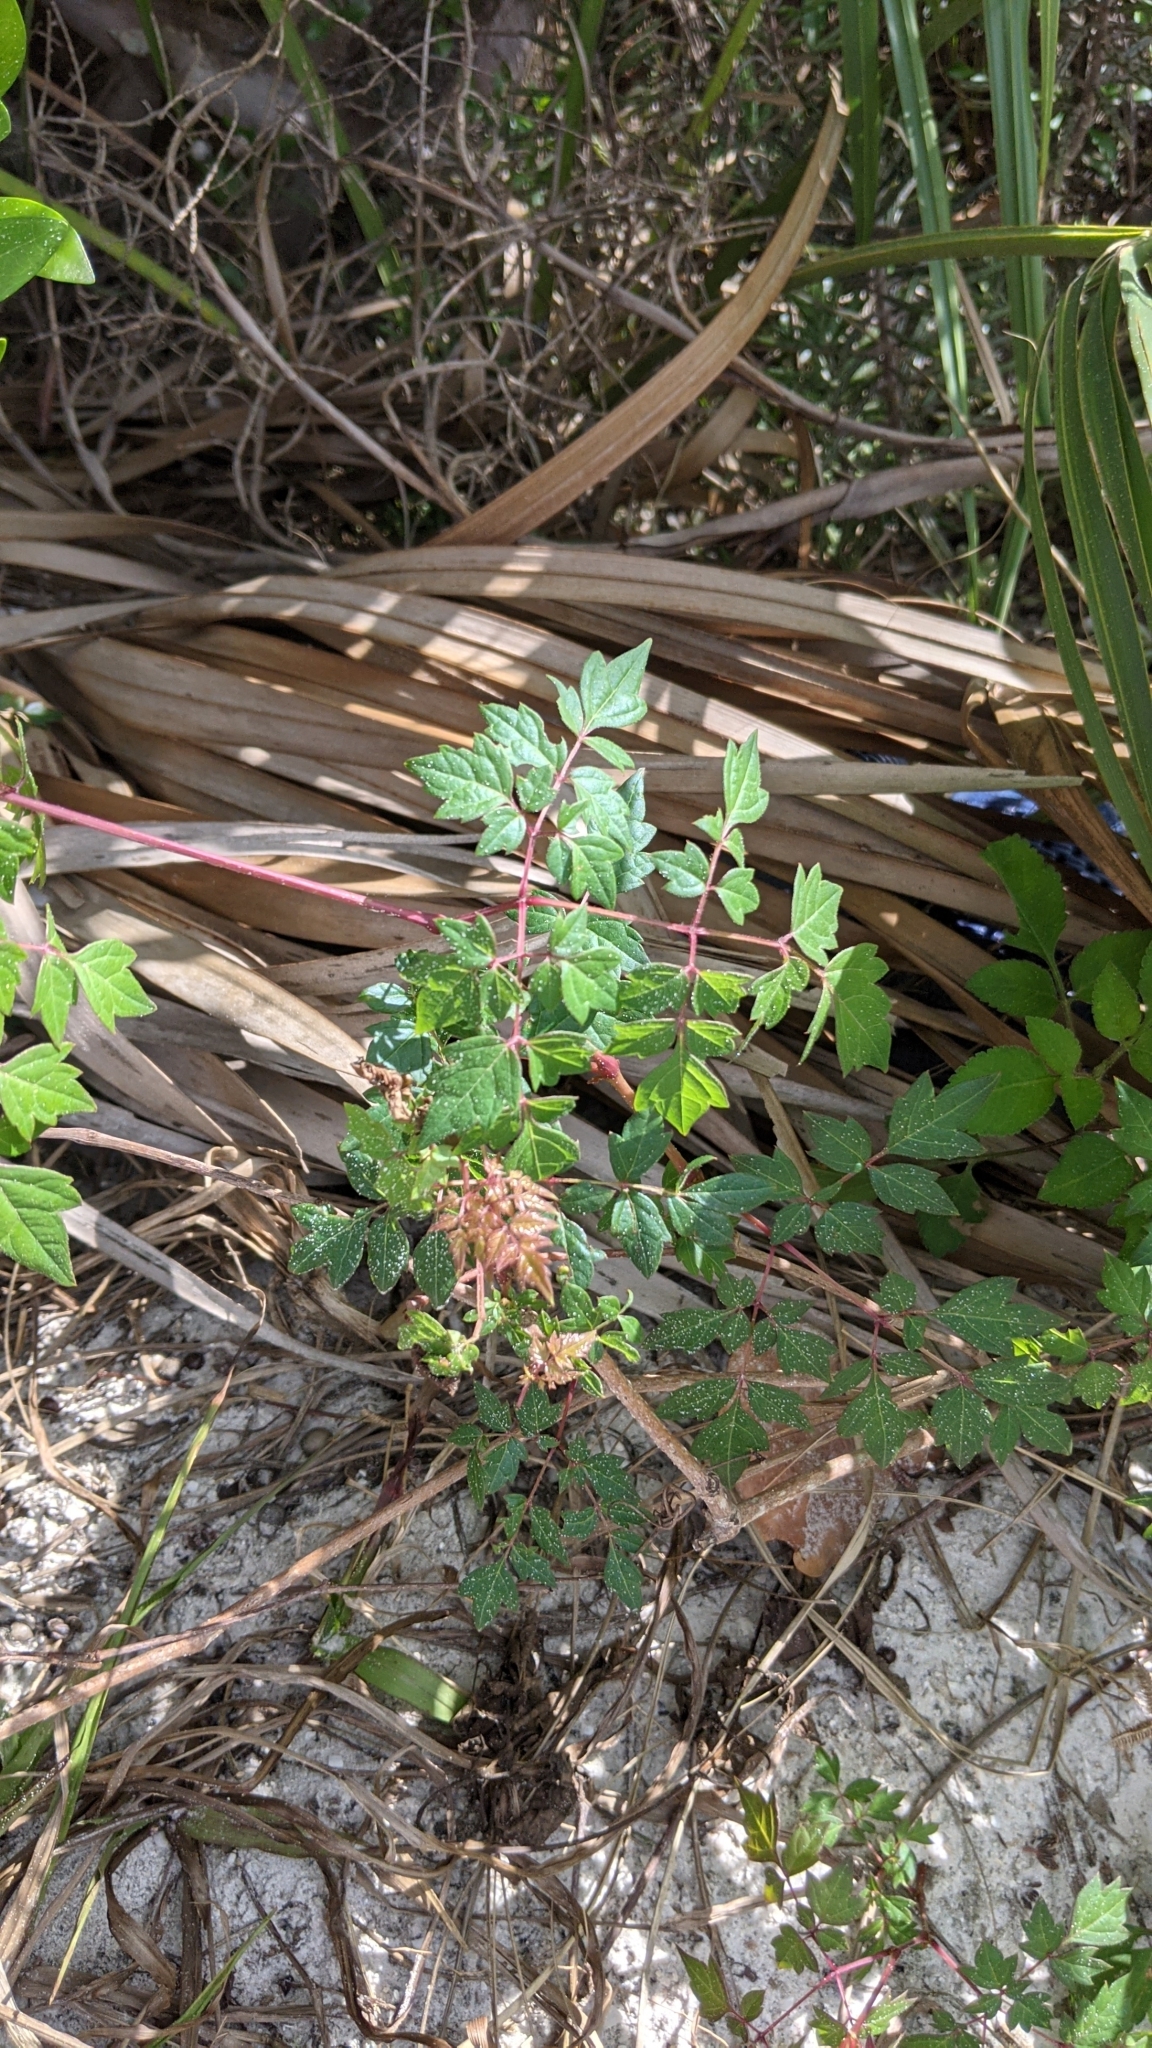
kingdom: Plantae
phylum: Tracheophyta
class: Magnoliopsida
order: Vitales
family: Vitaceae
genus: Nekemias
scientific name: Nekemias arborea
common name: Peppervine
